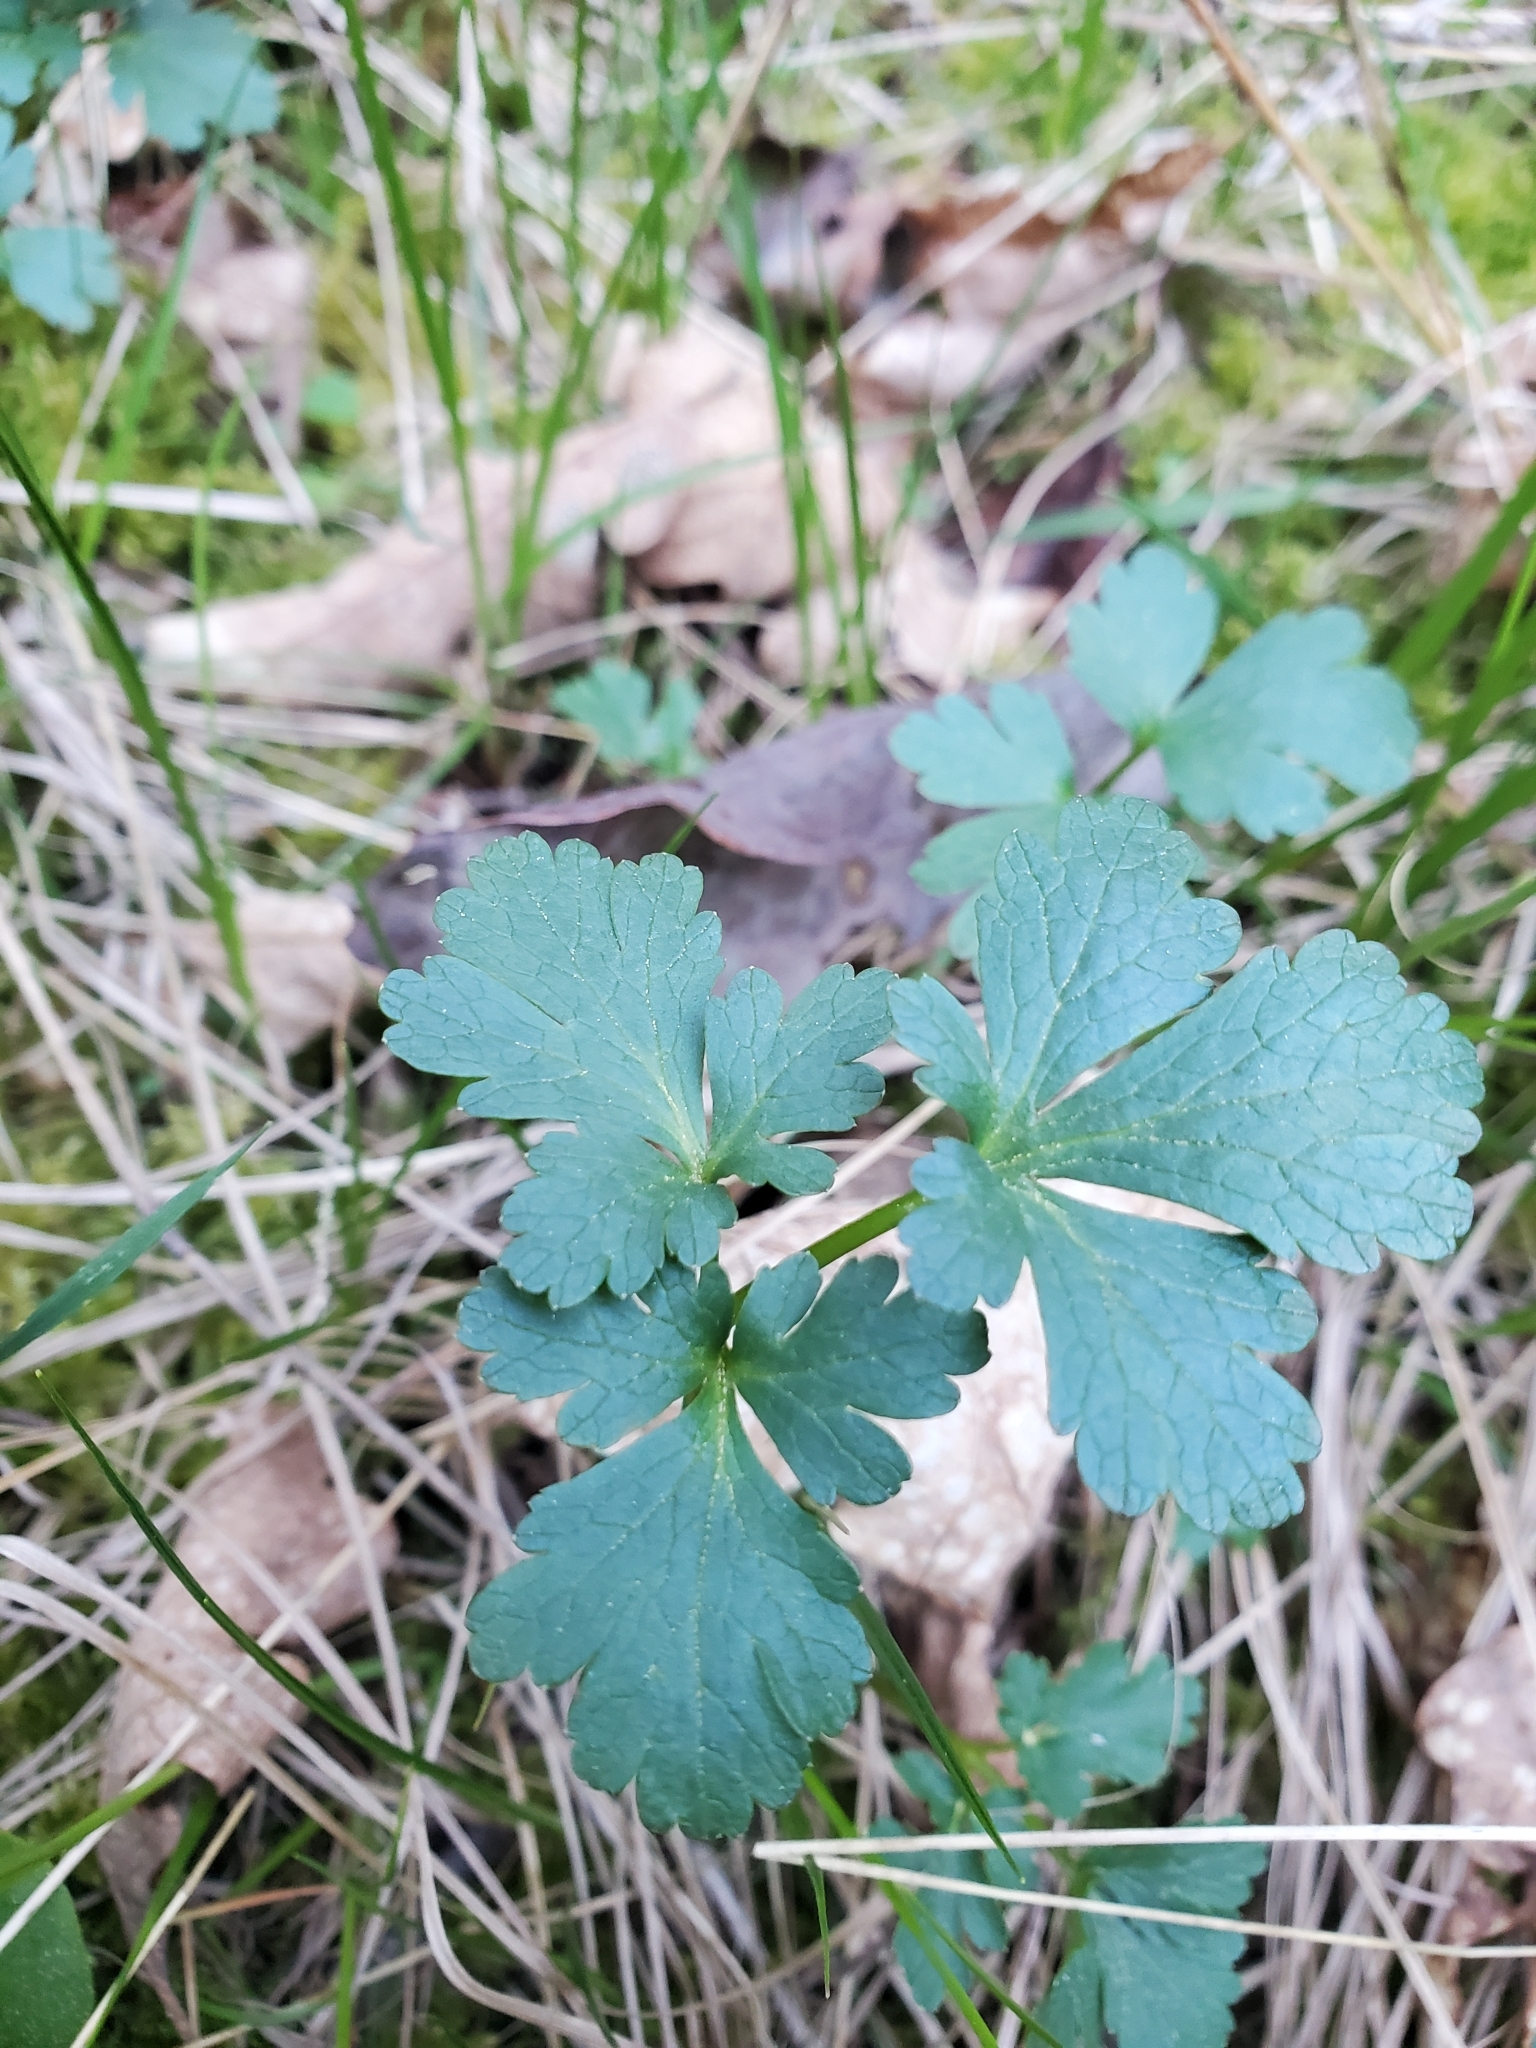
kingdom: Plantae
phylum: Tracheophyta
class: Magnoliopsida
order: Apiales
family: Apiaceae
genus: Sanicula
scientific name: Sanicula graveolens
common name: Sierra sanicle
